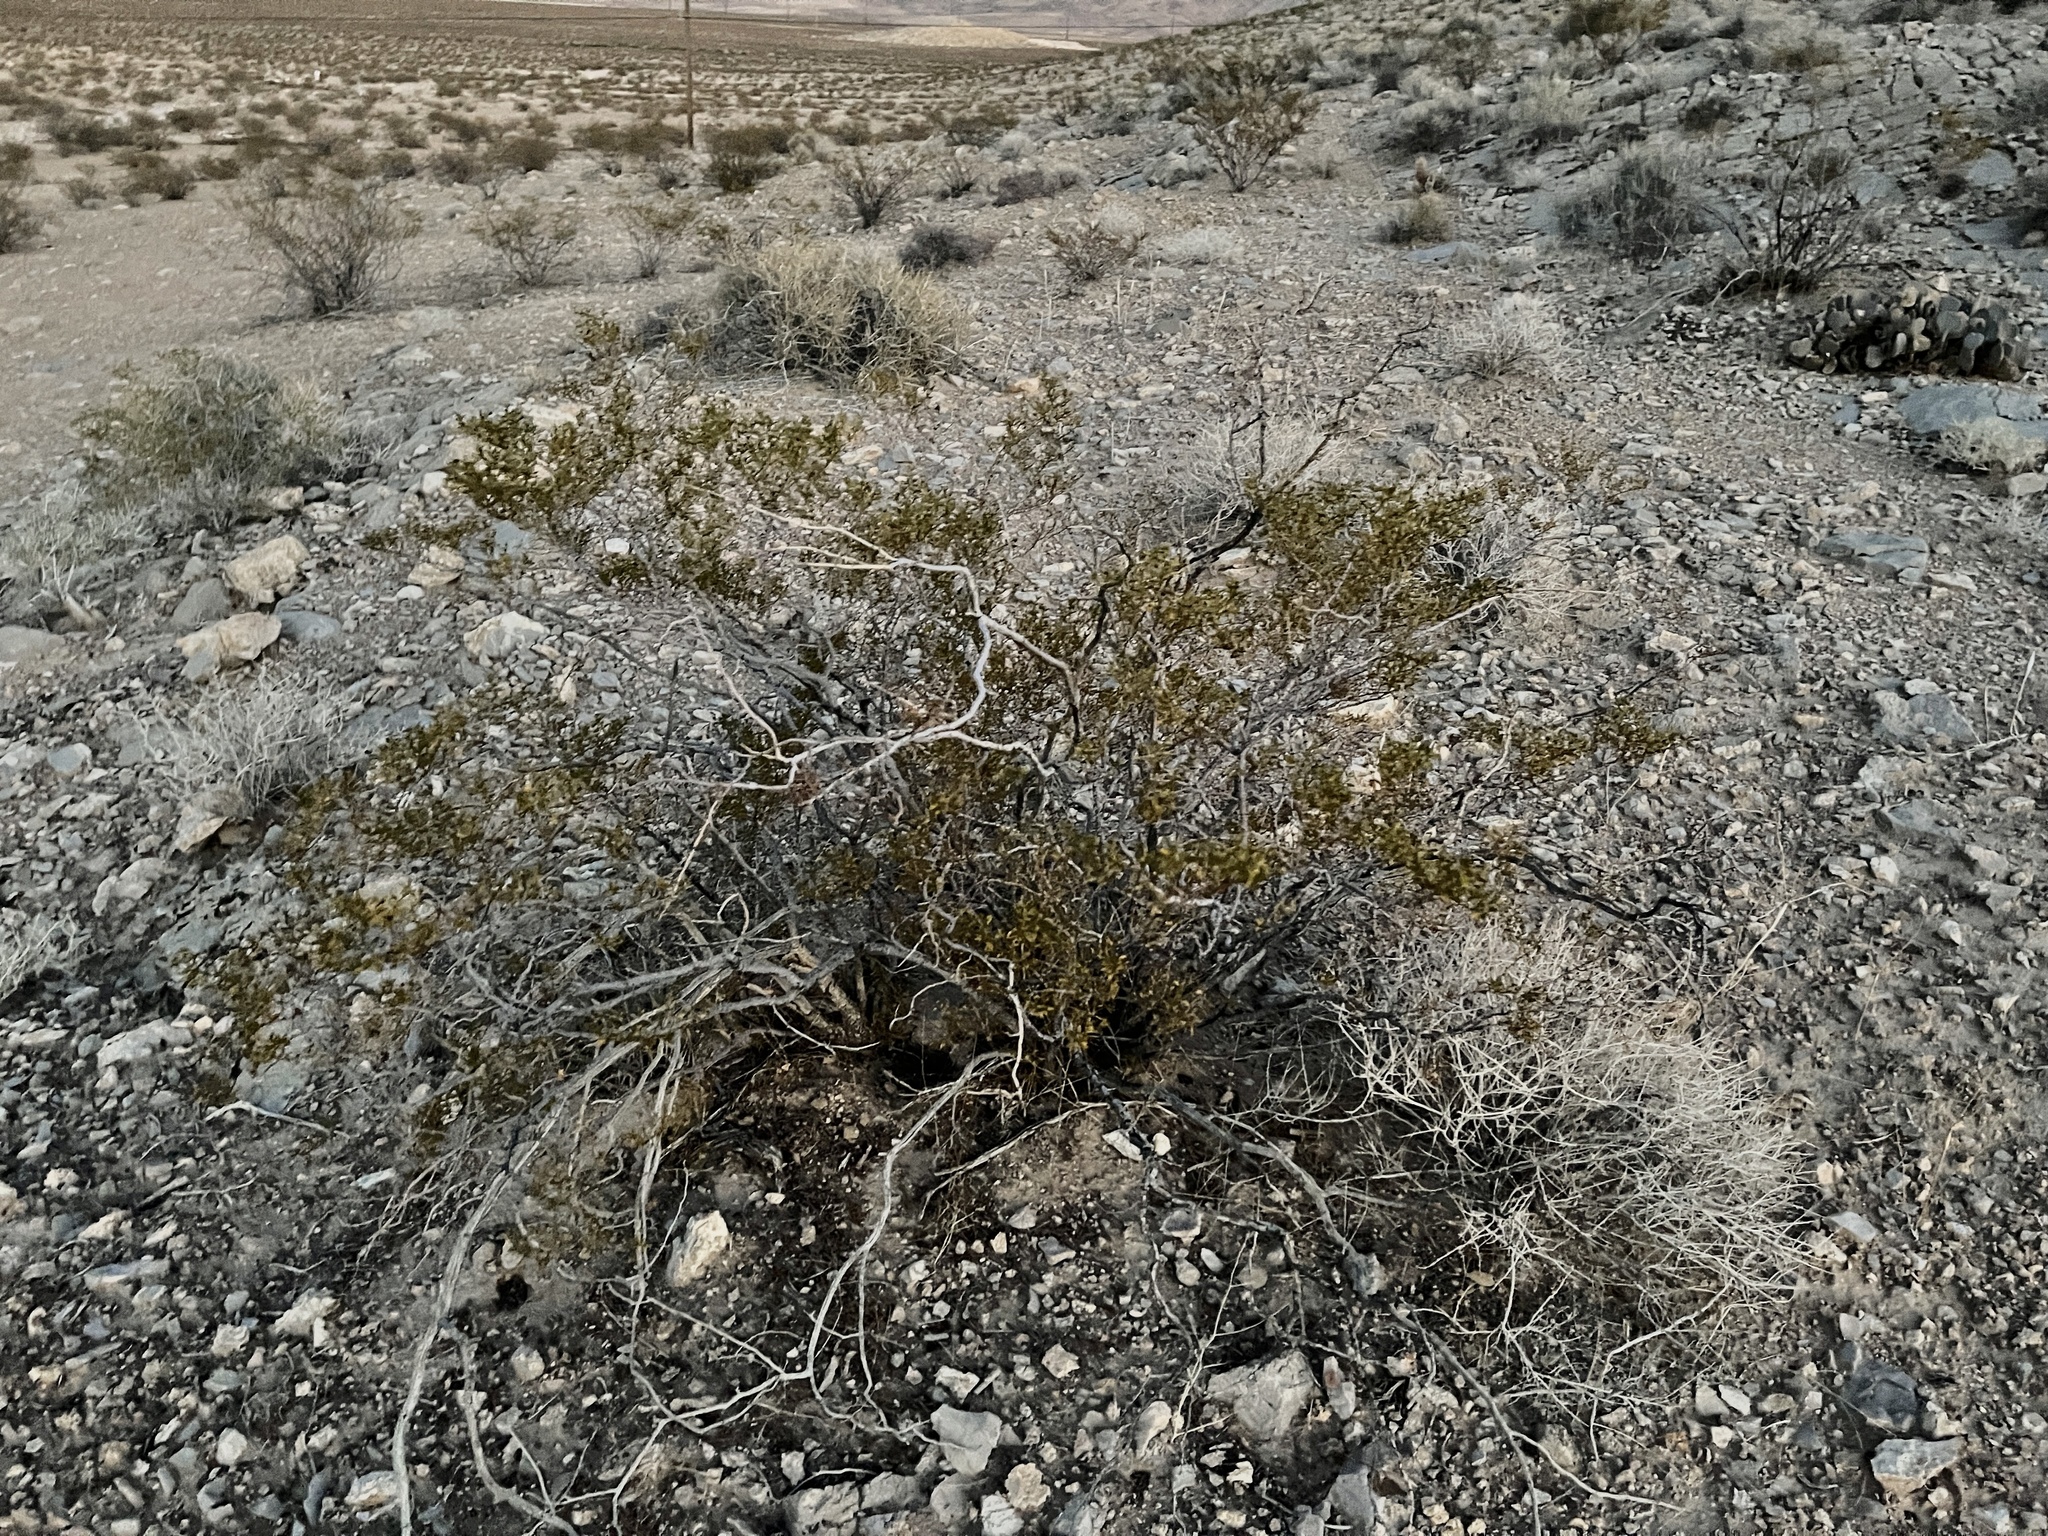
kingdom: Plantae
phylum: Tracheophyta
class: Magnoliopsida
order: Zygophyllales
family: Zygophyllaceae
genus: Larrea
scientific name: Larrea tridentata
